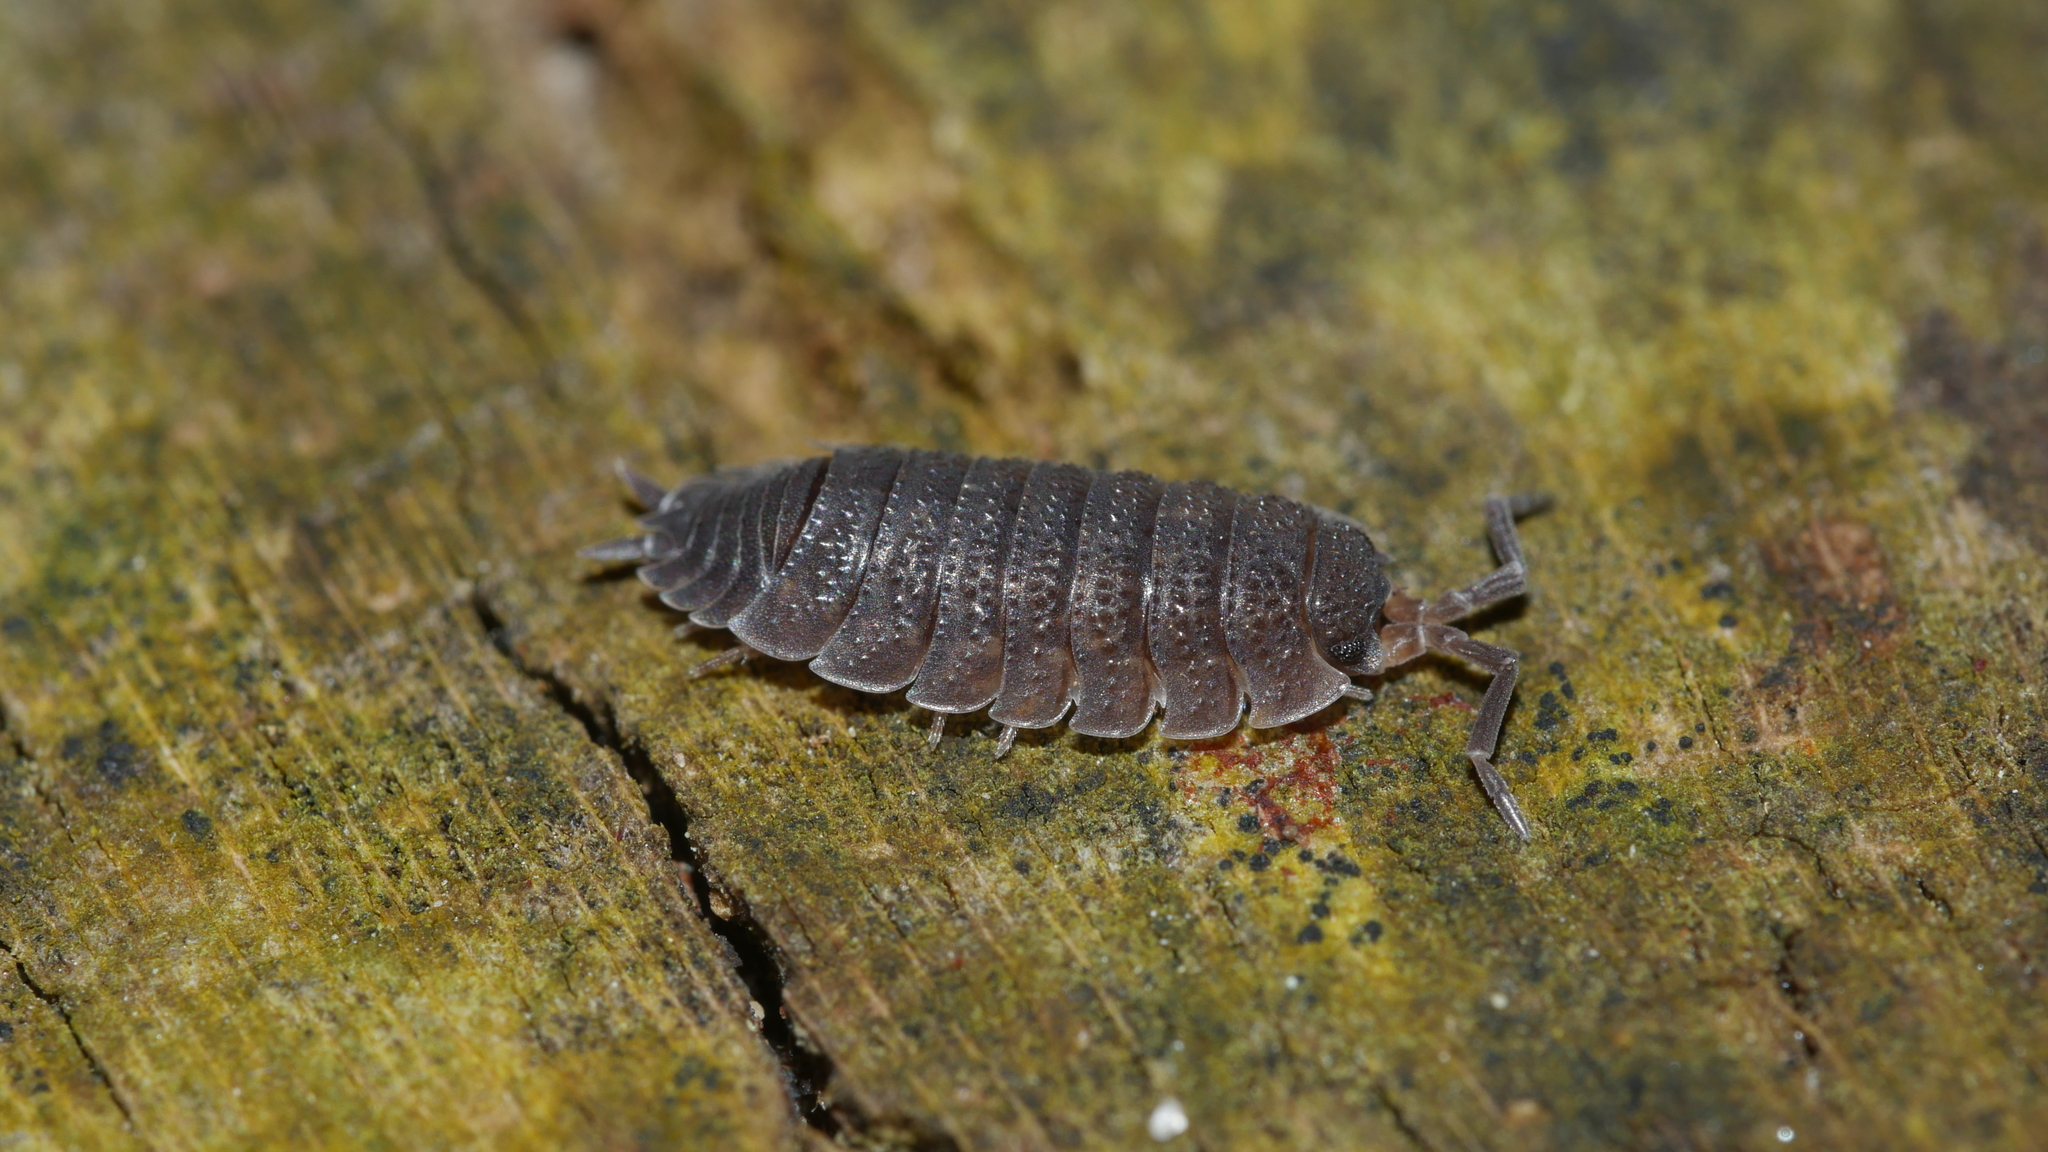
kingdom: Animalia
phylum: Arthropoda
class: Malacostraca
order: Isopoda
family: Porcellionidae
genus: Porcellio
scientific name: Porcellio scaber
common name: Common rough woodlouse
